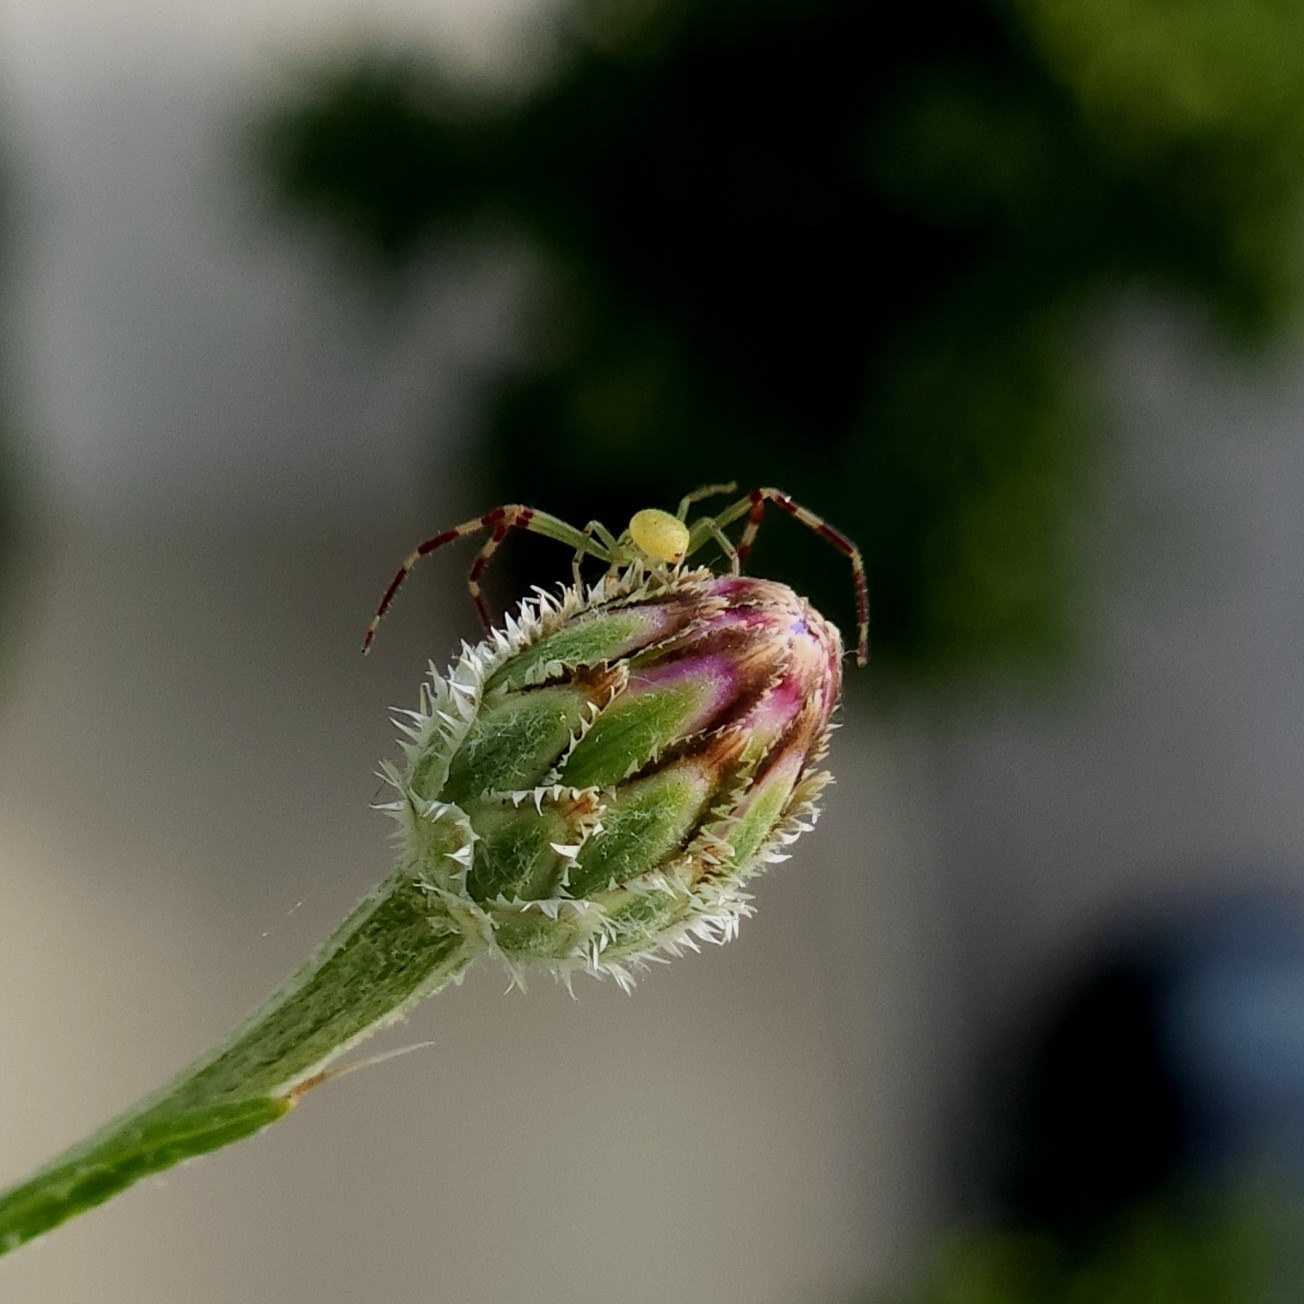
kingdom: Animalia
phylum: Arthropoda
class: Arachnida
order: Araneae
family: Thomisidae
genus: Misumessus
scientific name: Misumessus oblongus
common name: American green crab spider
